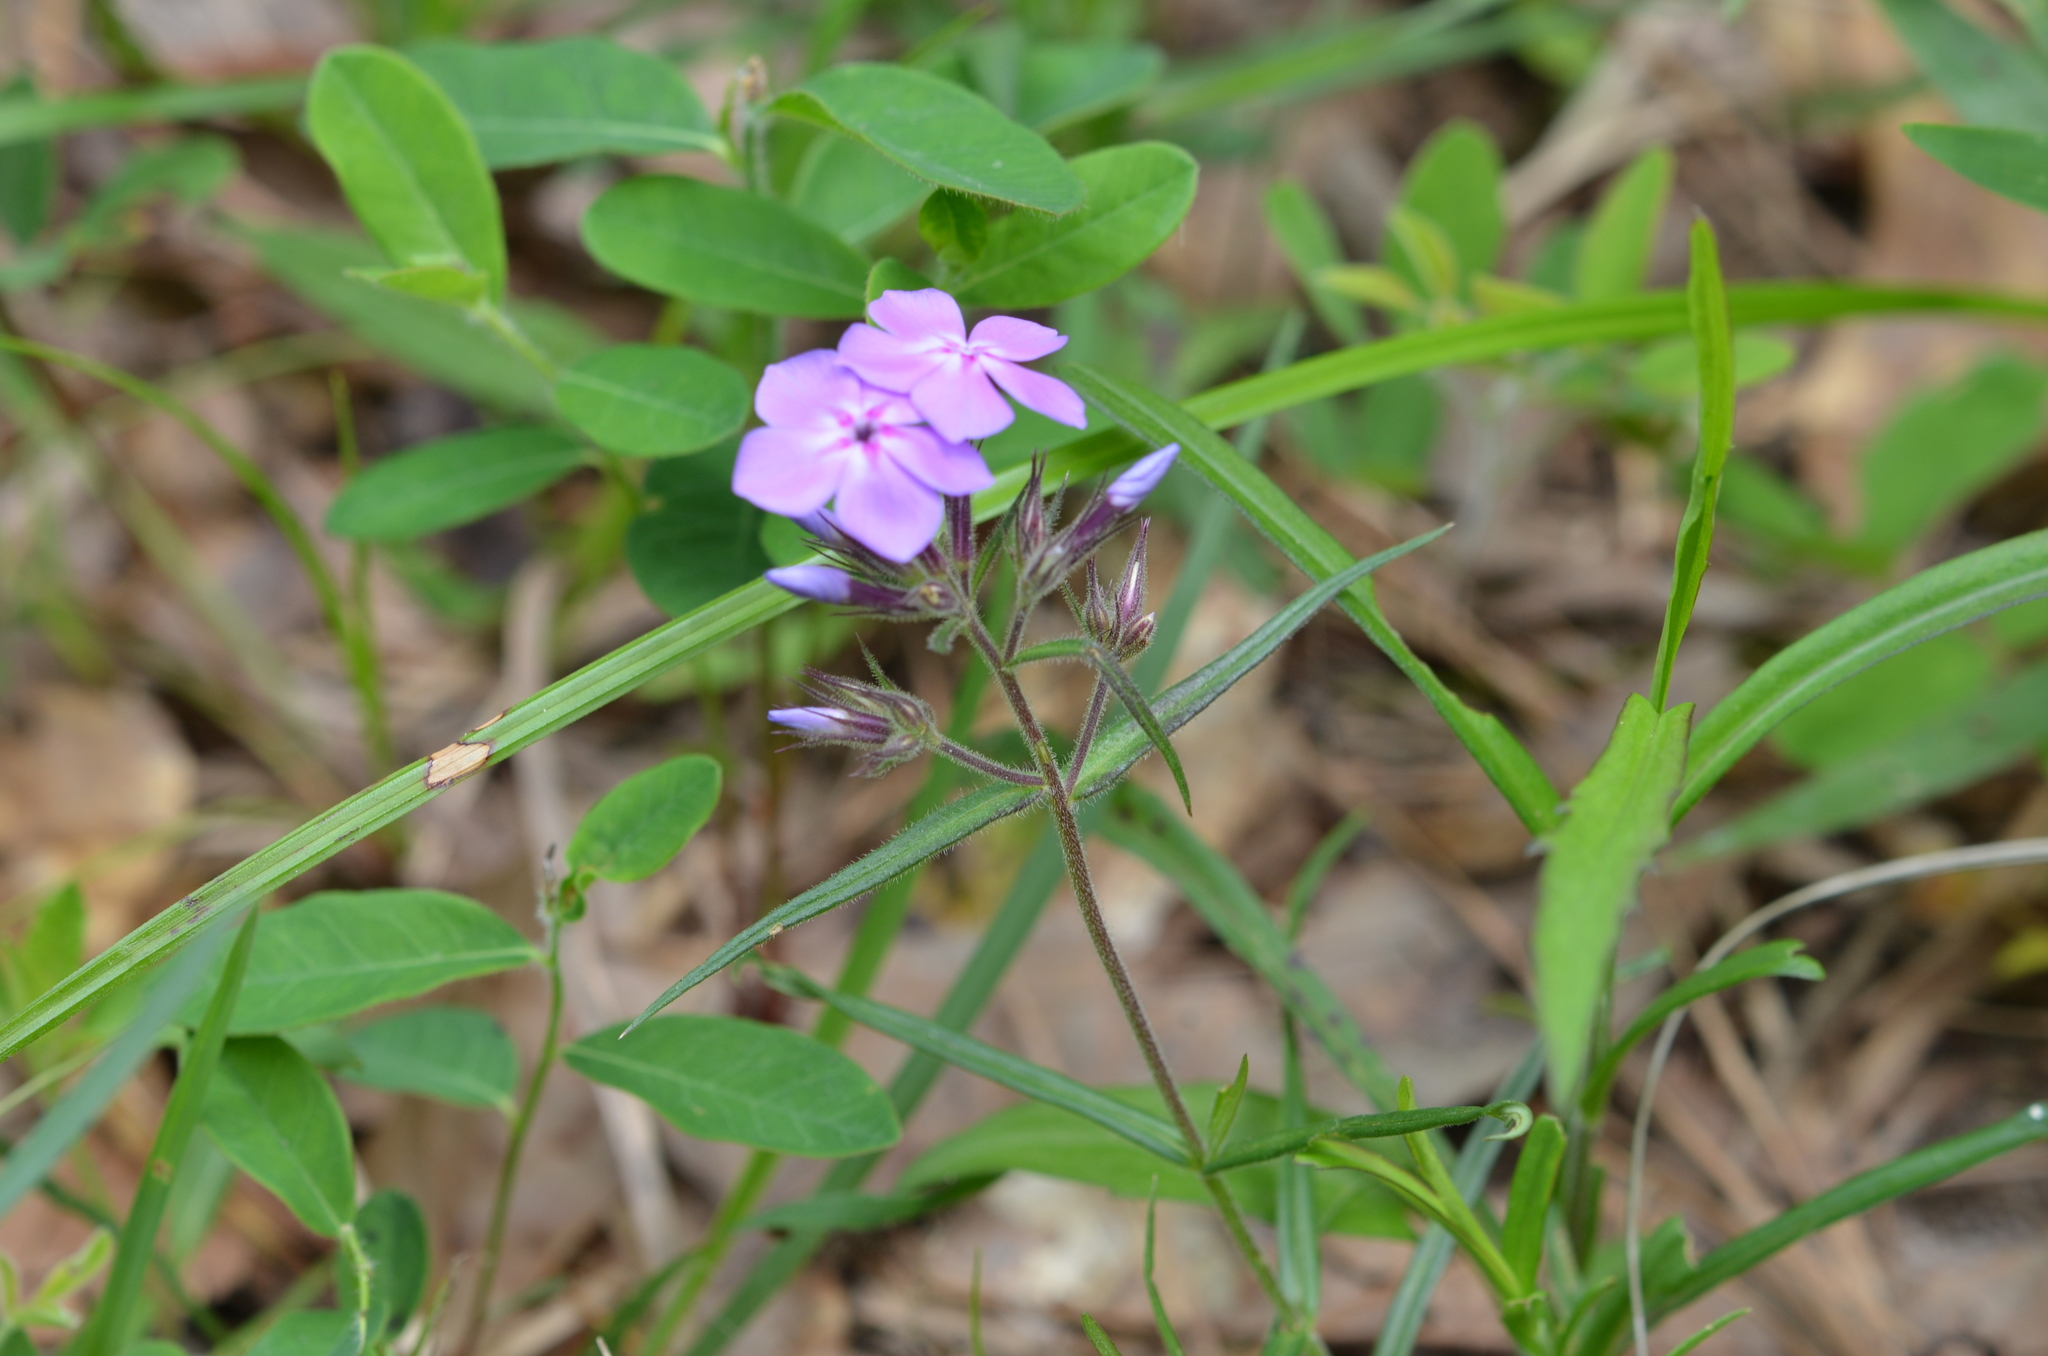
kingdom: Plantae
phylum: Tracheophyta
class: Magnoliopsida
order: Ericales
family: Polemoniaceae
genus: Phlox
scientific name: Phlox pilosa
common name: Prairie phlox
